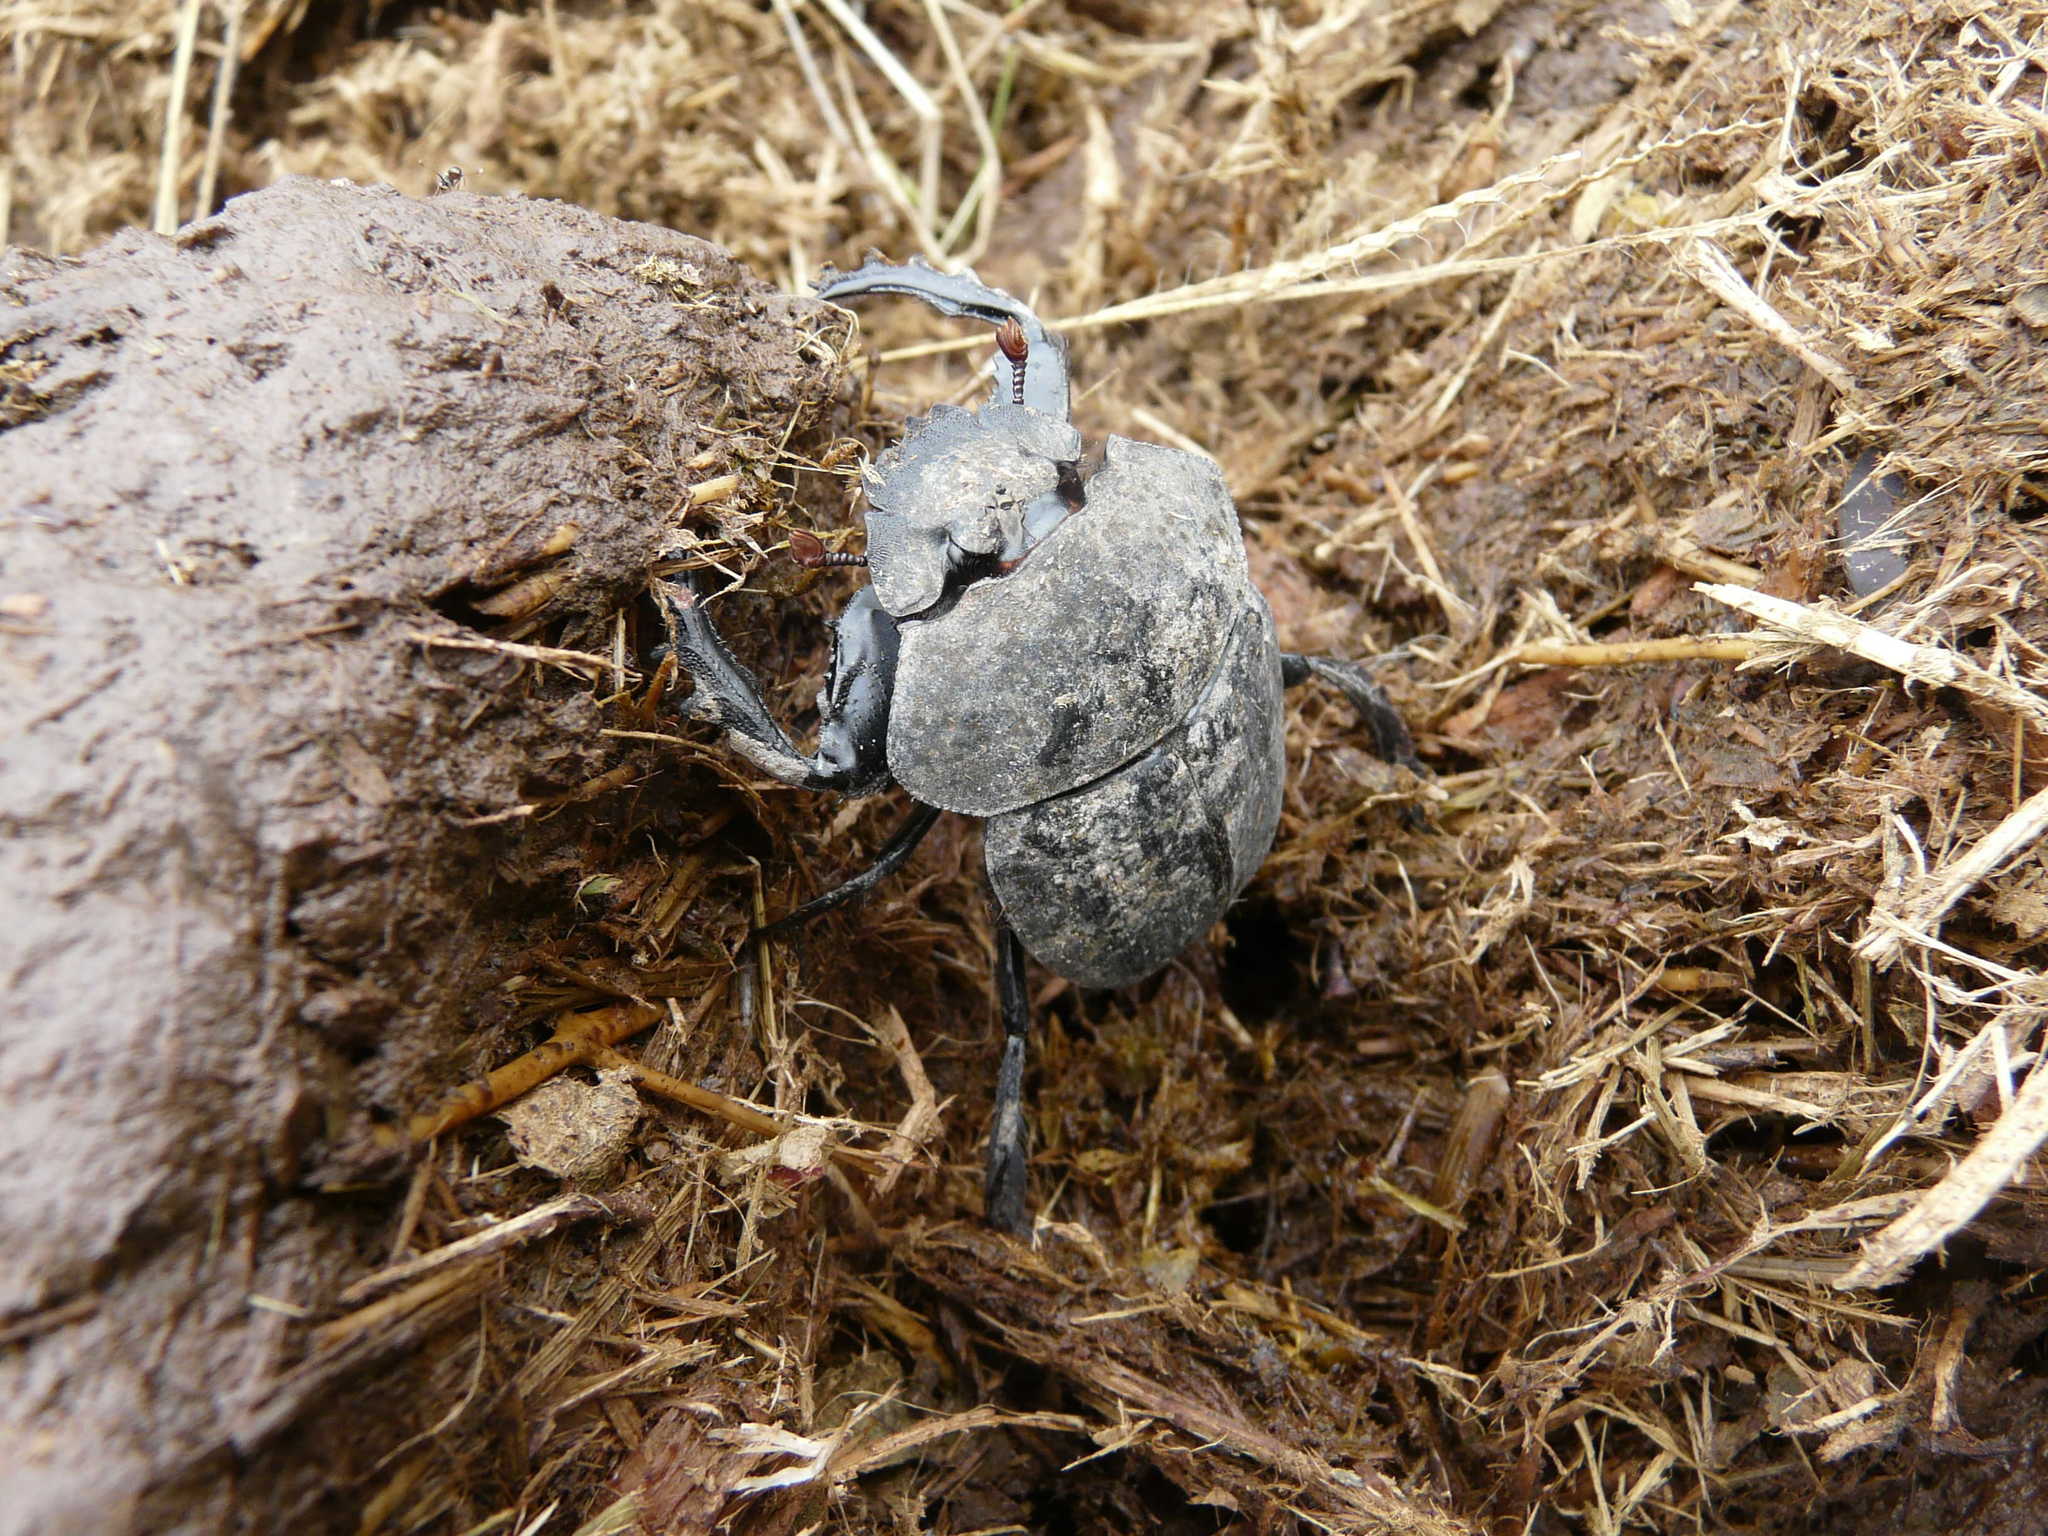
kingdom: Animalia
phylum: Arthropoda
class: Insecta
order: Coleoptera
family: Scarabaeidae
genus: Pachylomera
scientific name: Pachylomera femoralis
